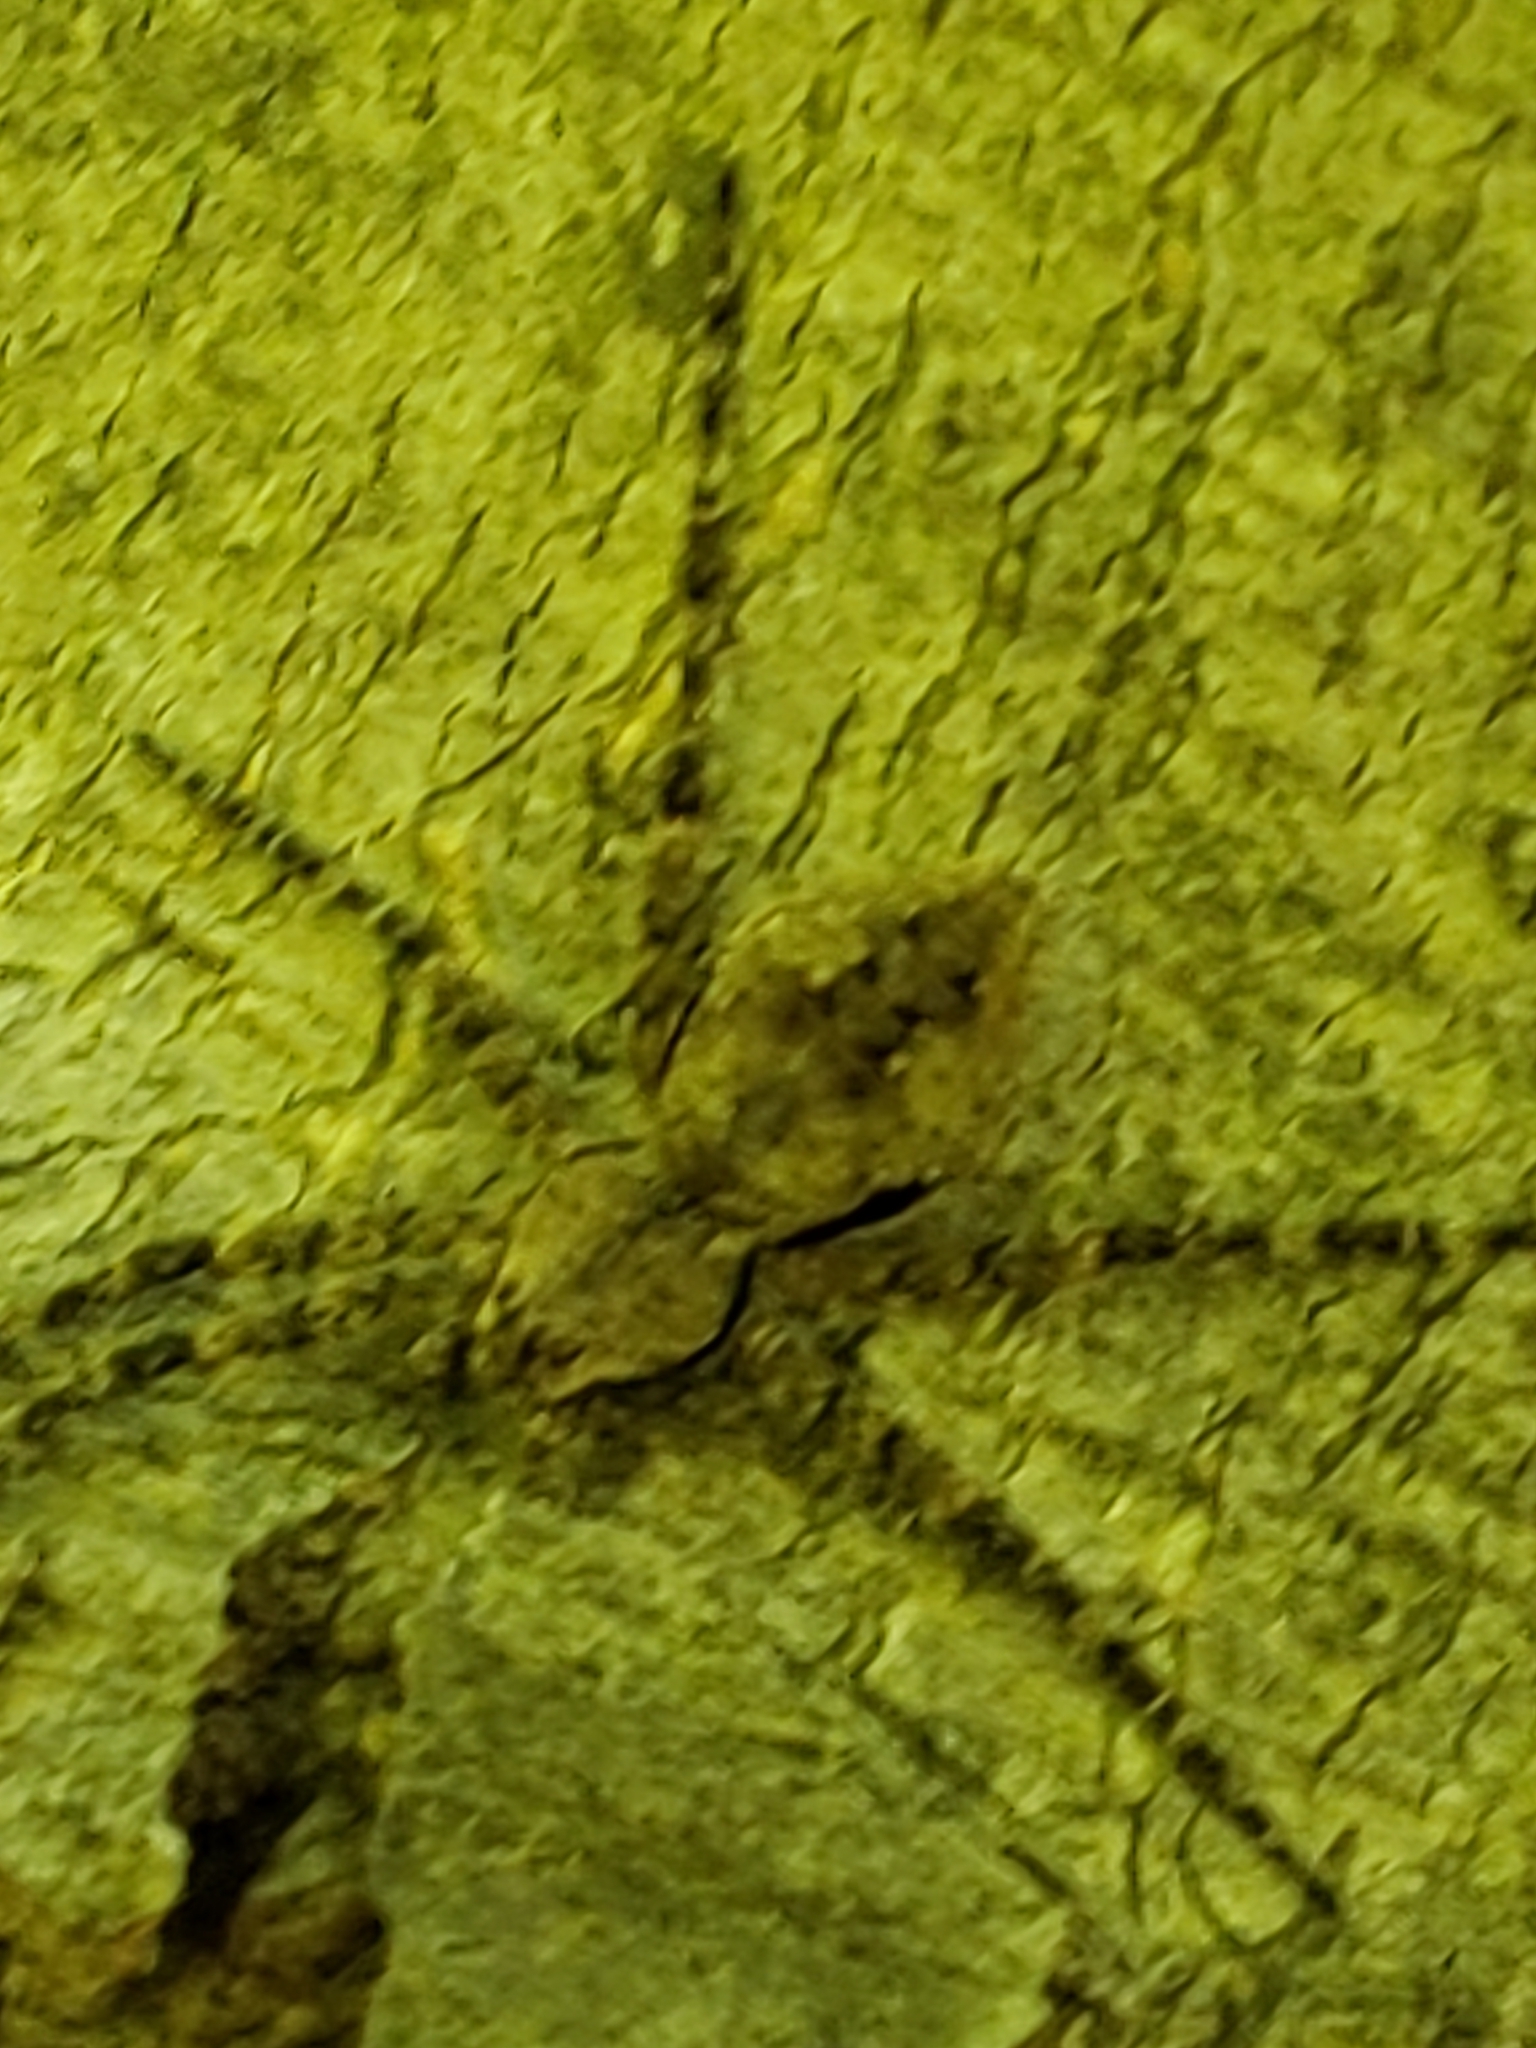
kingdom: Animalia
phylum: Arthropoda
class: Arachnida
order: Araneae
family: Pisauridae
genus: Dolomedes
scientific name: Dolomedes albineus
